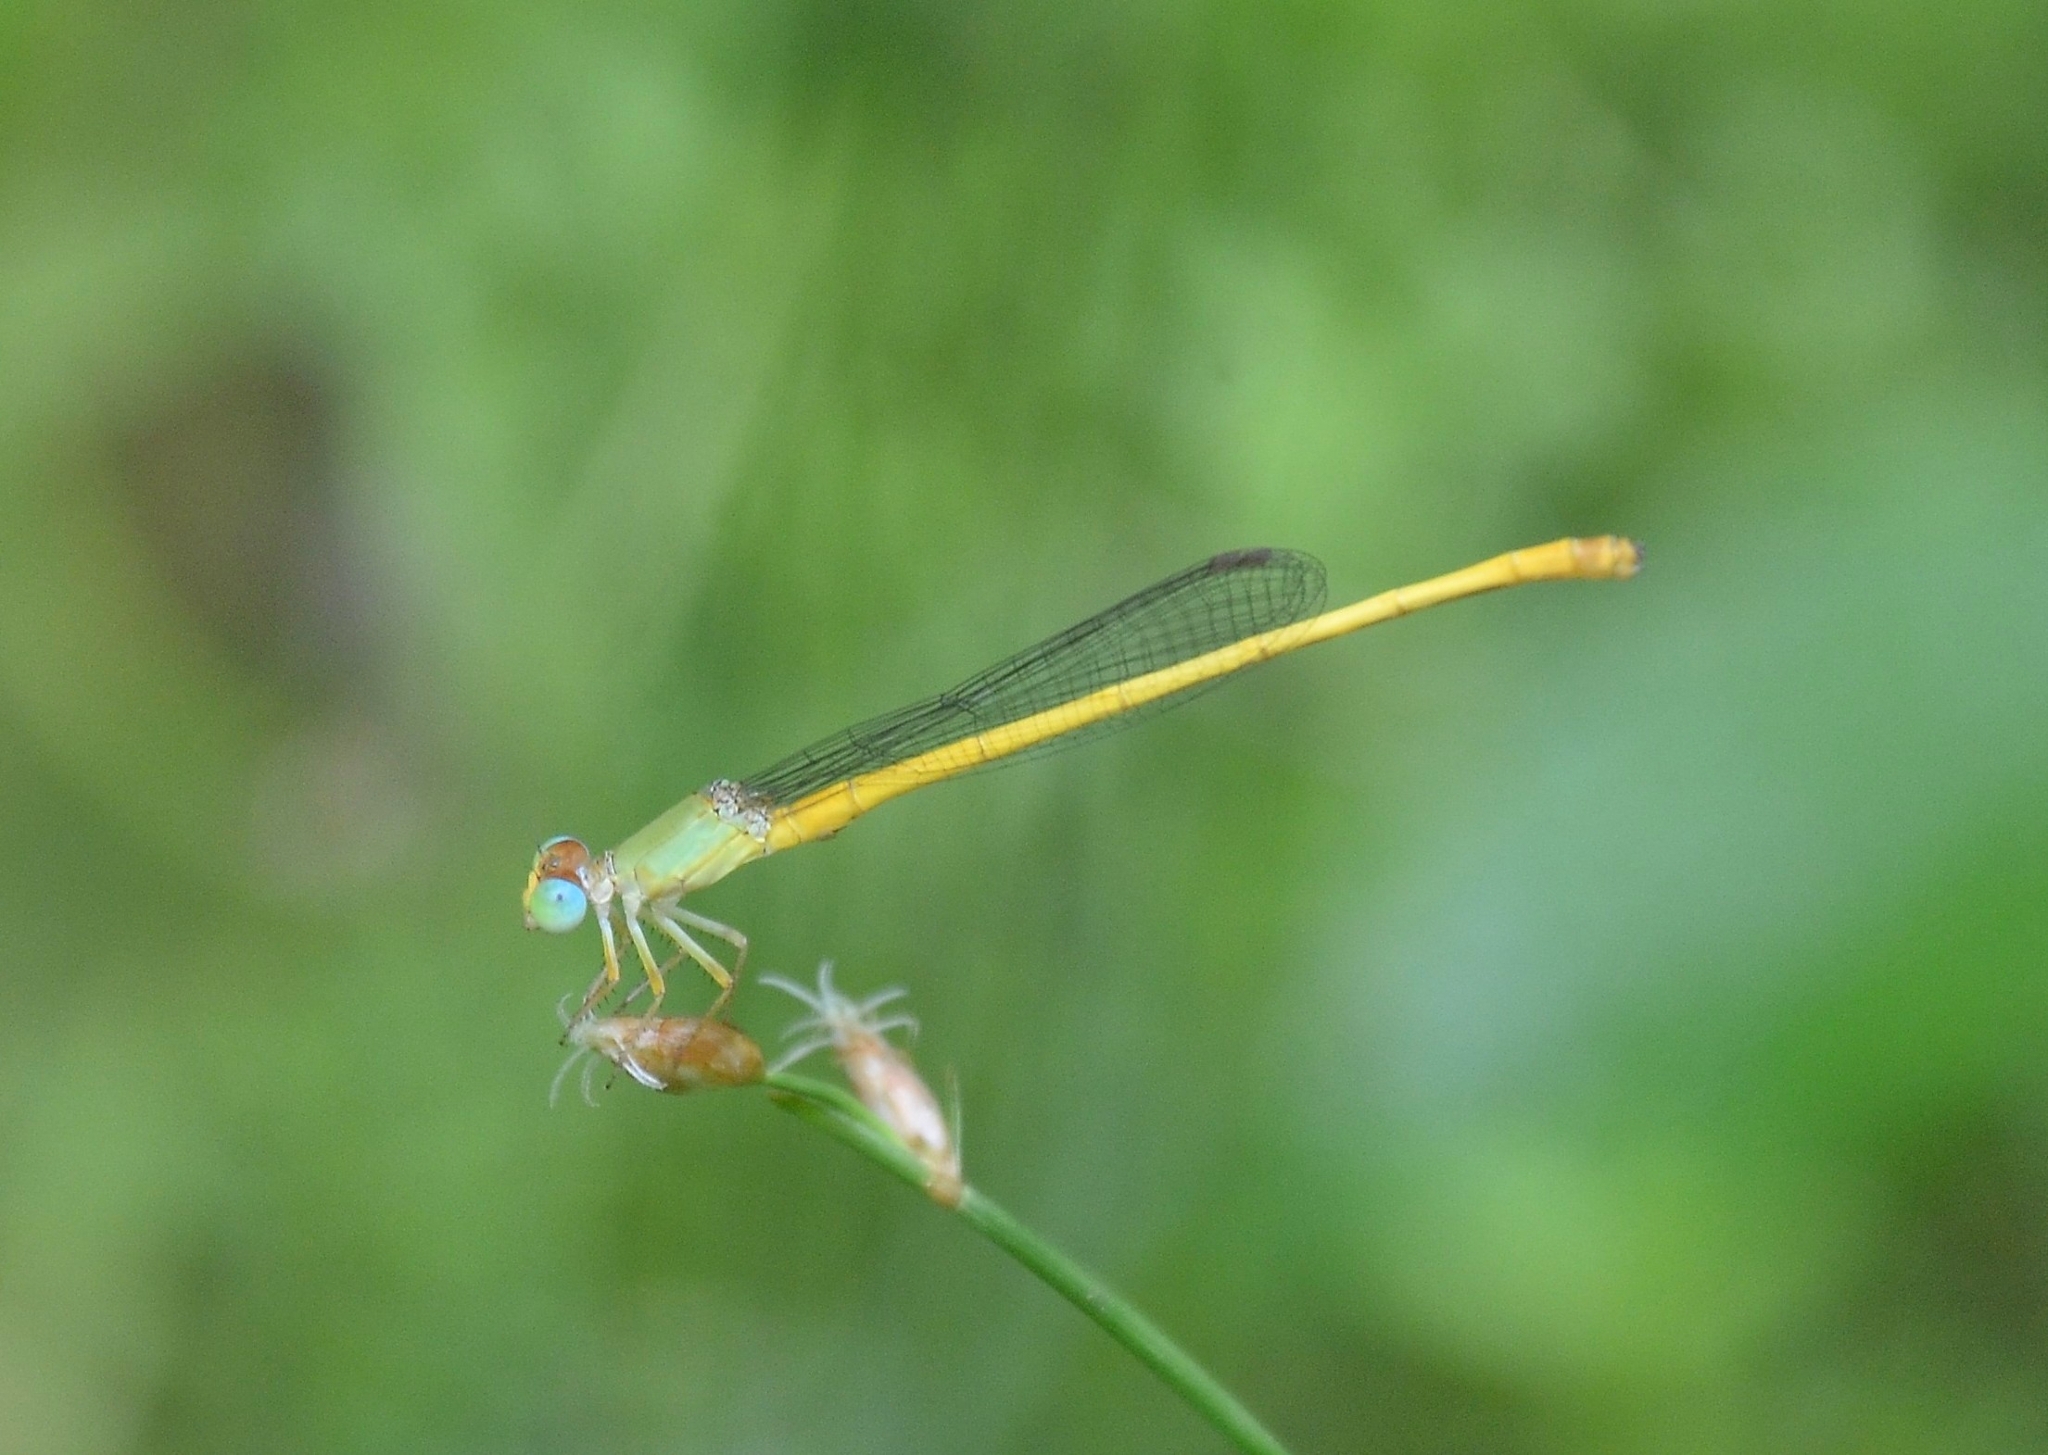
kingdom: Animalia
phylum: Arthropoda
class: Insecta
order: Odonata
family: Coenagrionidae
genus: Ceriagrion
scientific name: Ceriagrion coromandelianum
